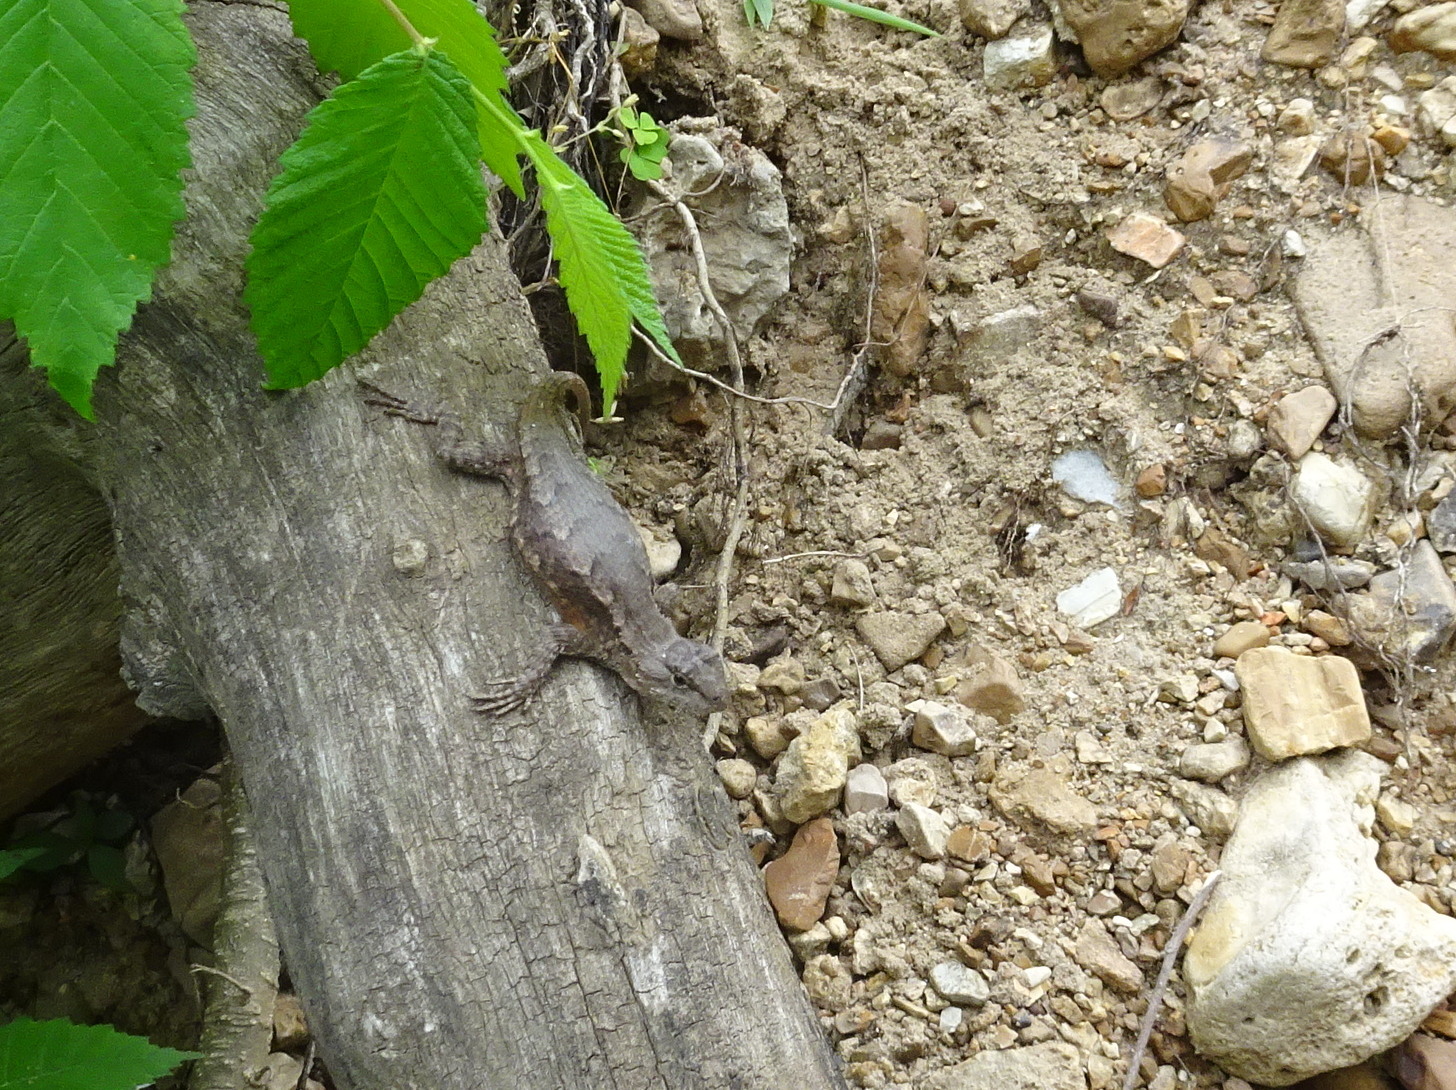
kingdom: Animalia
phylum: Chordata
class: Squamata
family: Phrynosomatidae
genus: Sceloporus
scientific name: Sceloporus consobrinus
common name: Southern prairie lizard
